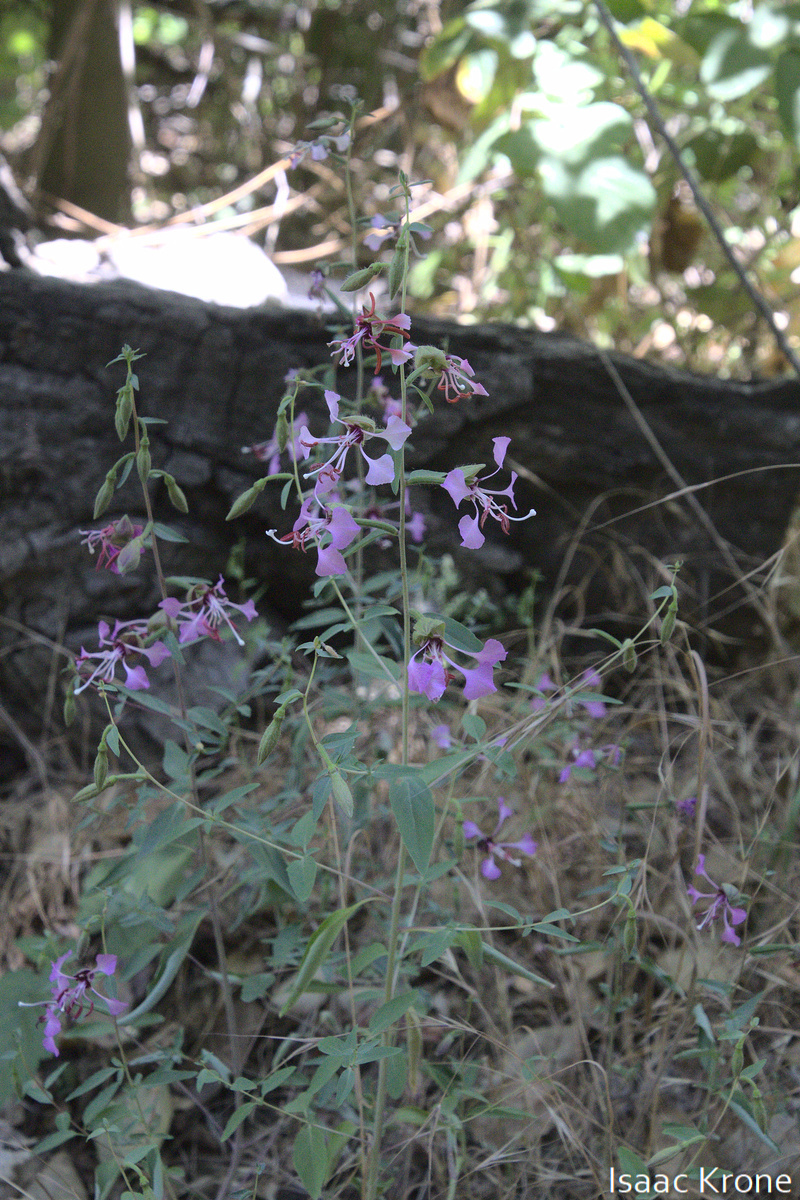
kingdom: Plantae
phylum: Tracheophyta
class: Magnoliopsida
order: Myrtales
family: Onagraceae
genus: Clarkia
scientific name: Clarkia unguiculata
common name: Clarkia
